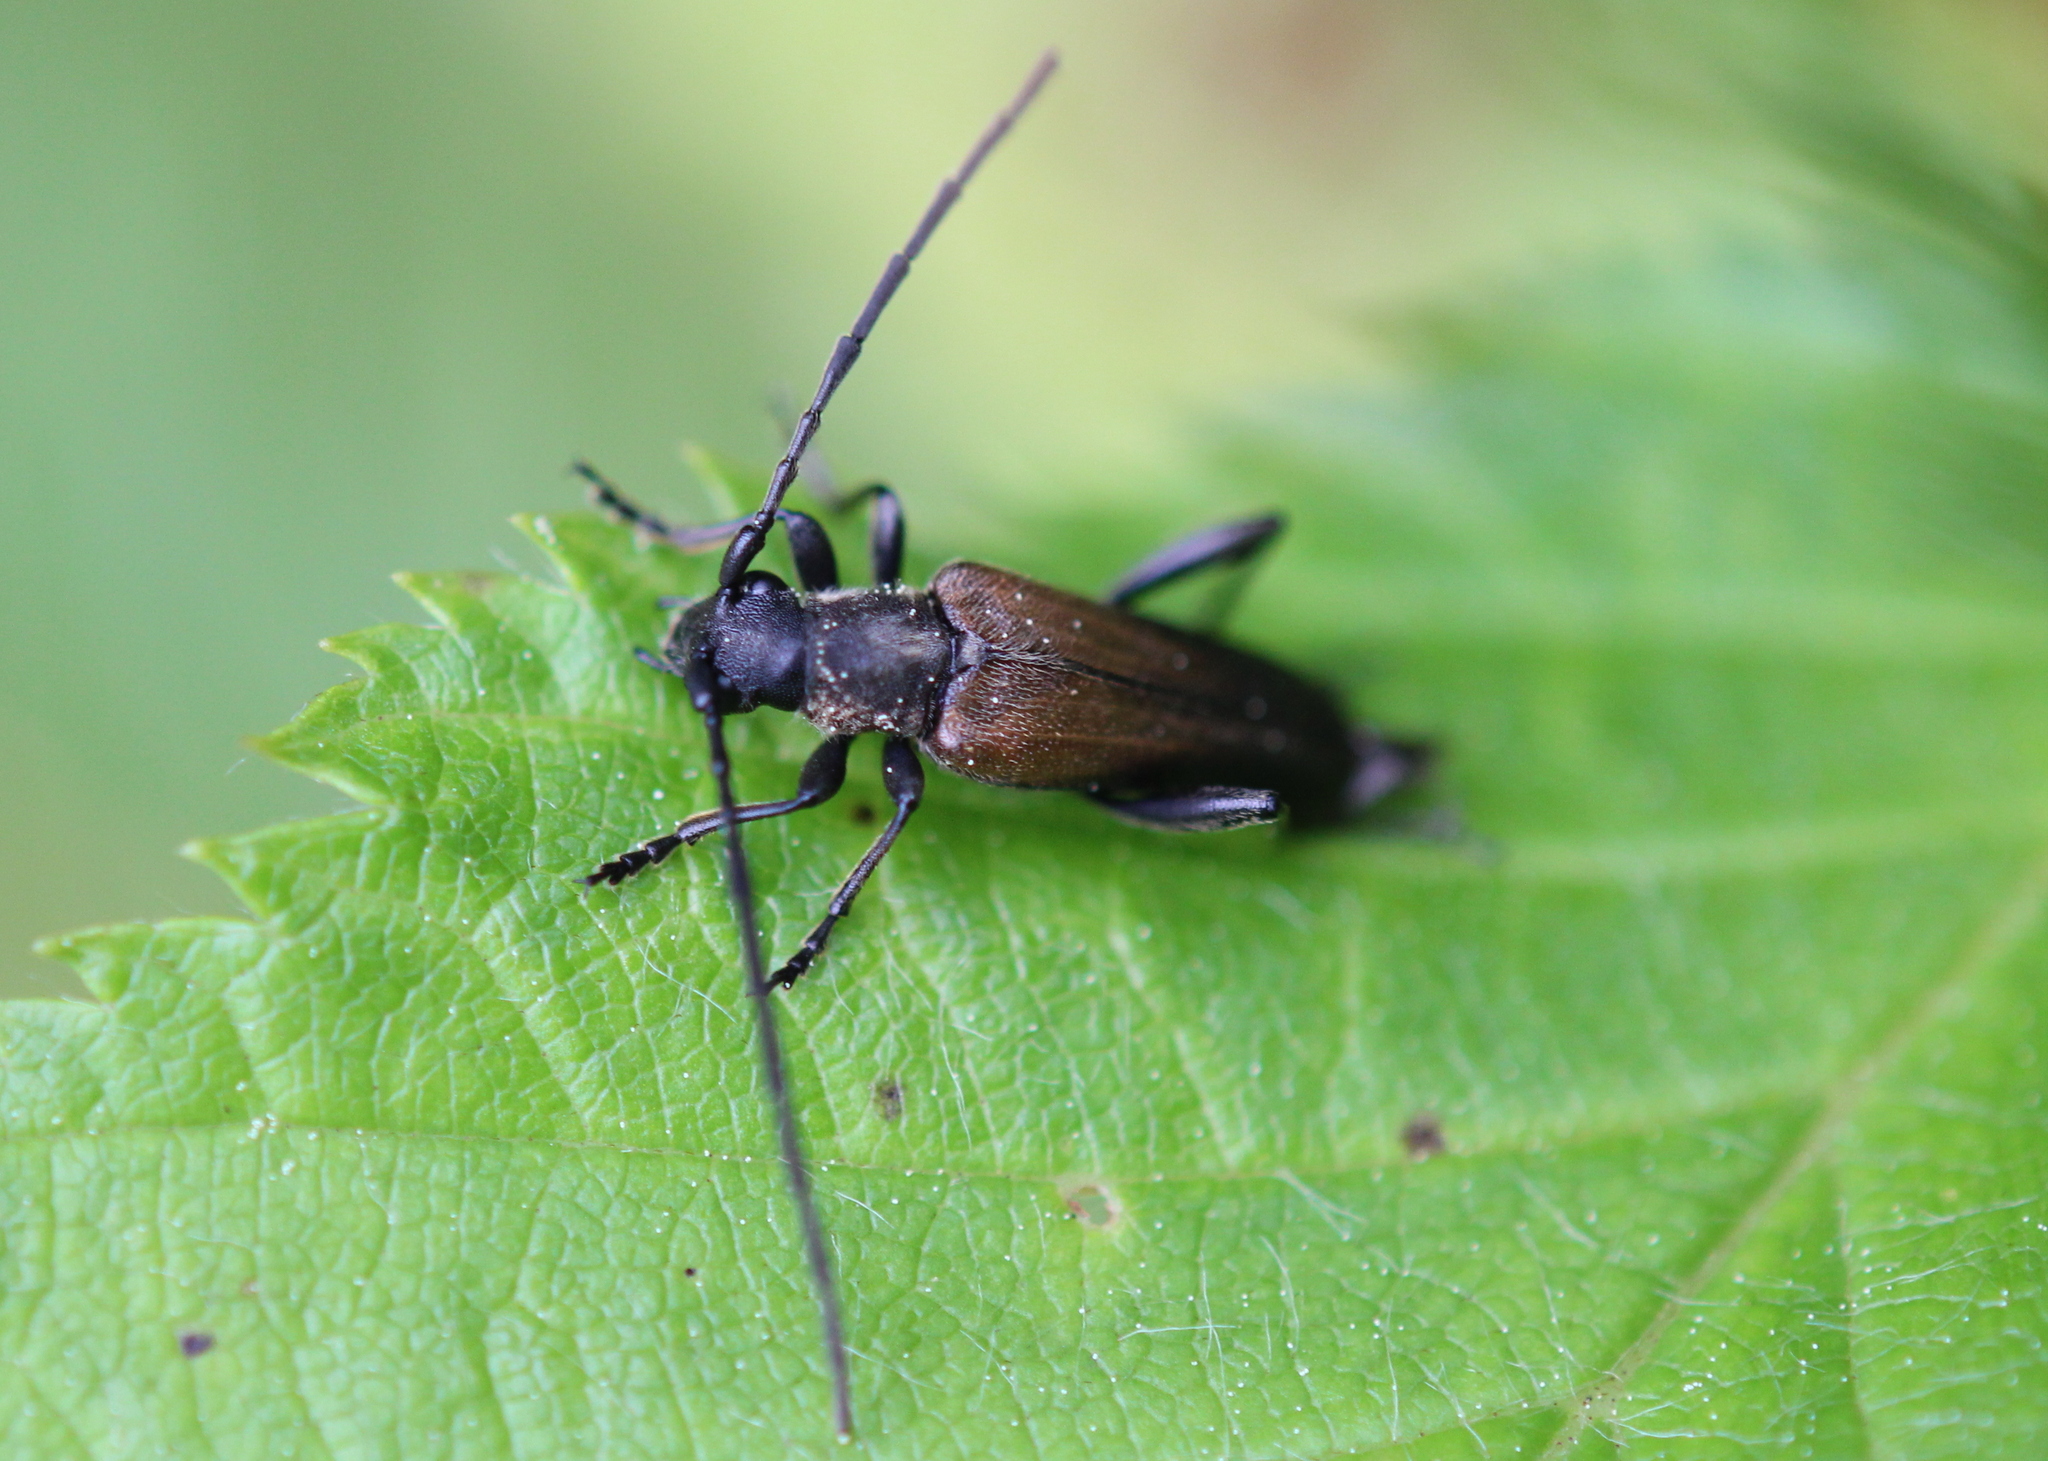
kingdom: Animalia
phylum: Arthropoda
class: Insecta
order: Coleoptera
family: Cerambycidae
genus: Trachysida
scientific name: Trachysida mutabilis
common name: Changeable flower longhorn
